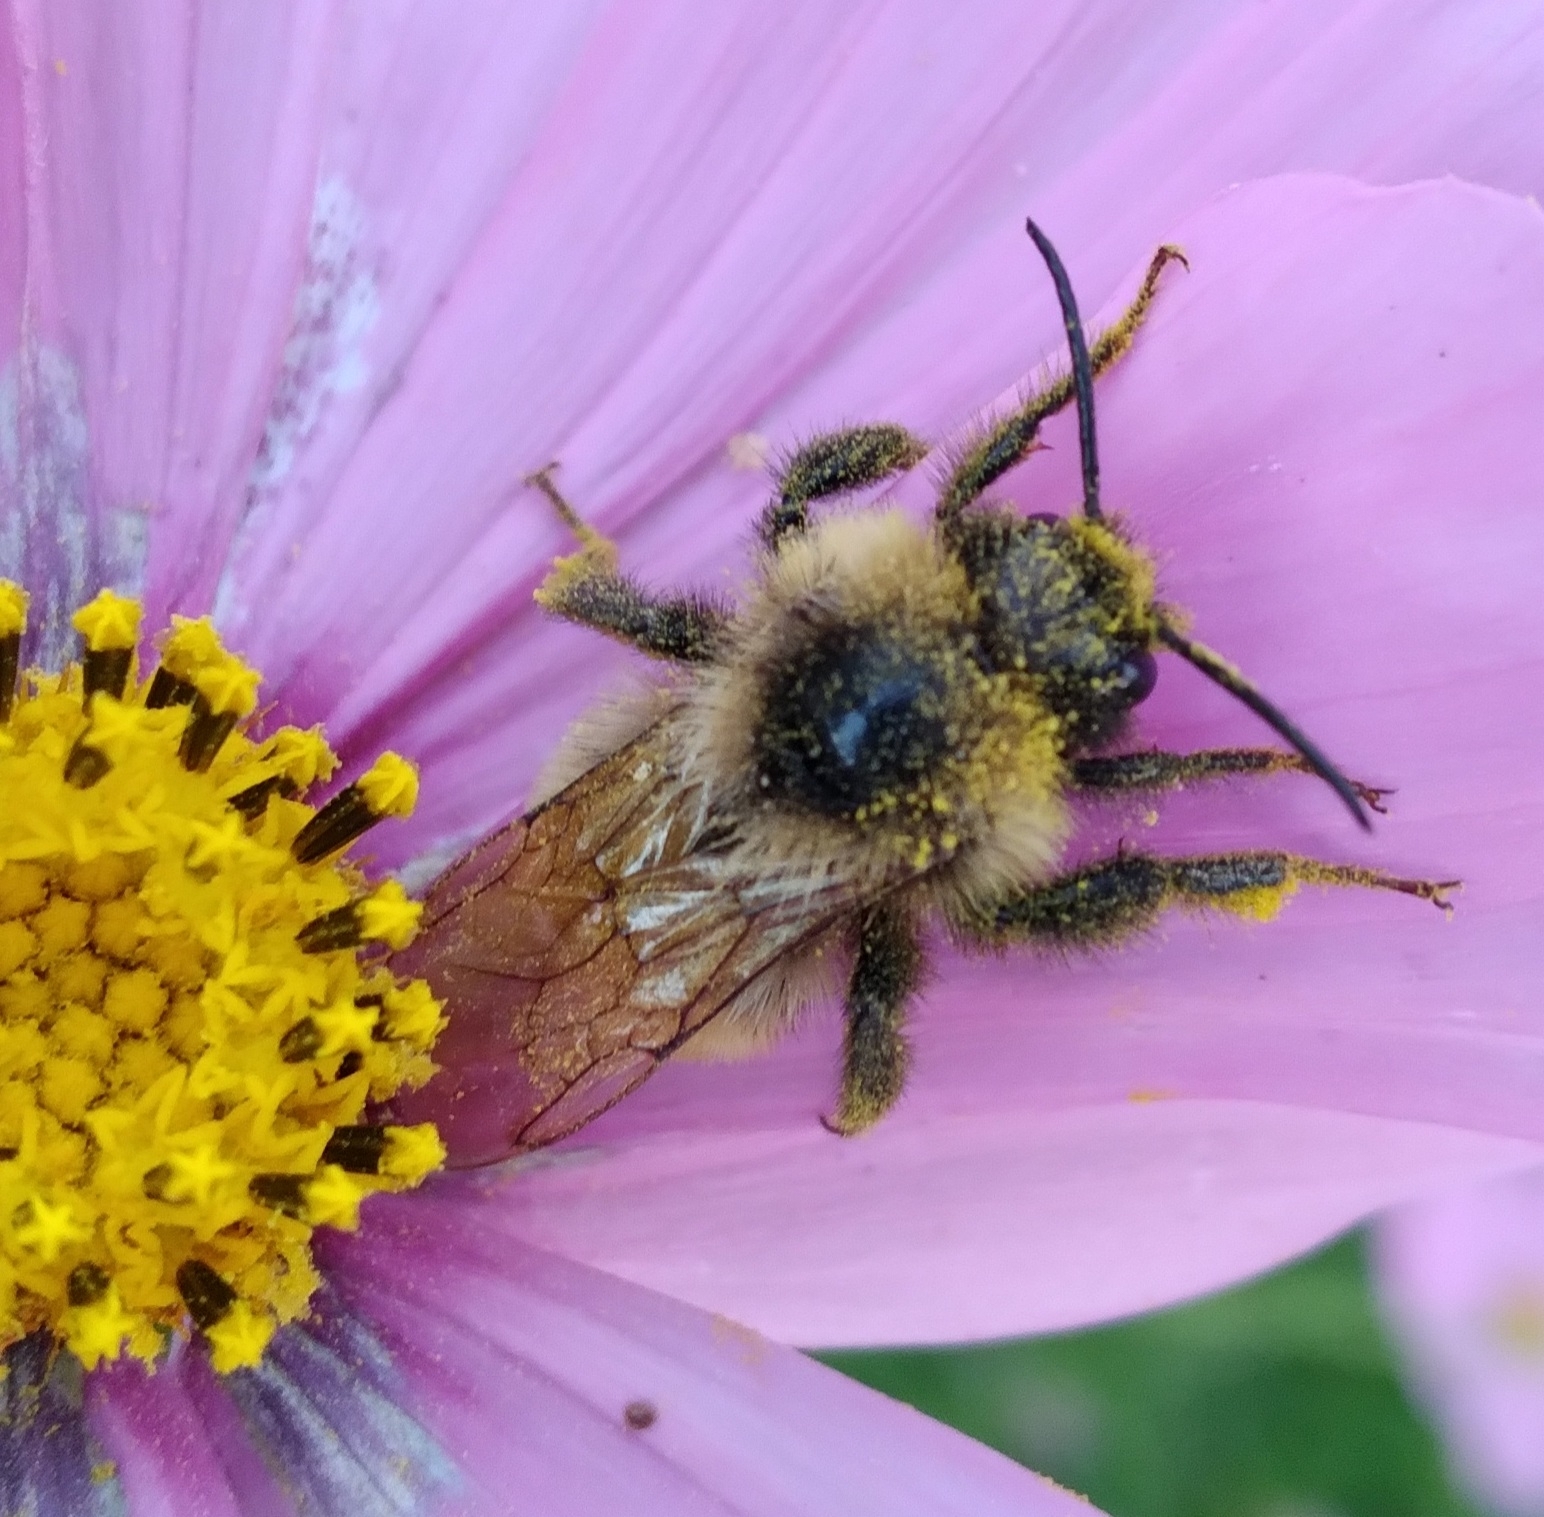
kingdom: Animalia
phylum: Arthropoda
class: Insecta
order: Hymenoptera
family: Apidae
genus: Bombus
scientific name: Bombus insularis
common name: Indiscriminate cuckoo bumble bee
